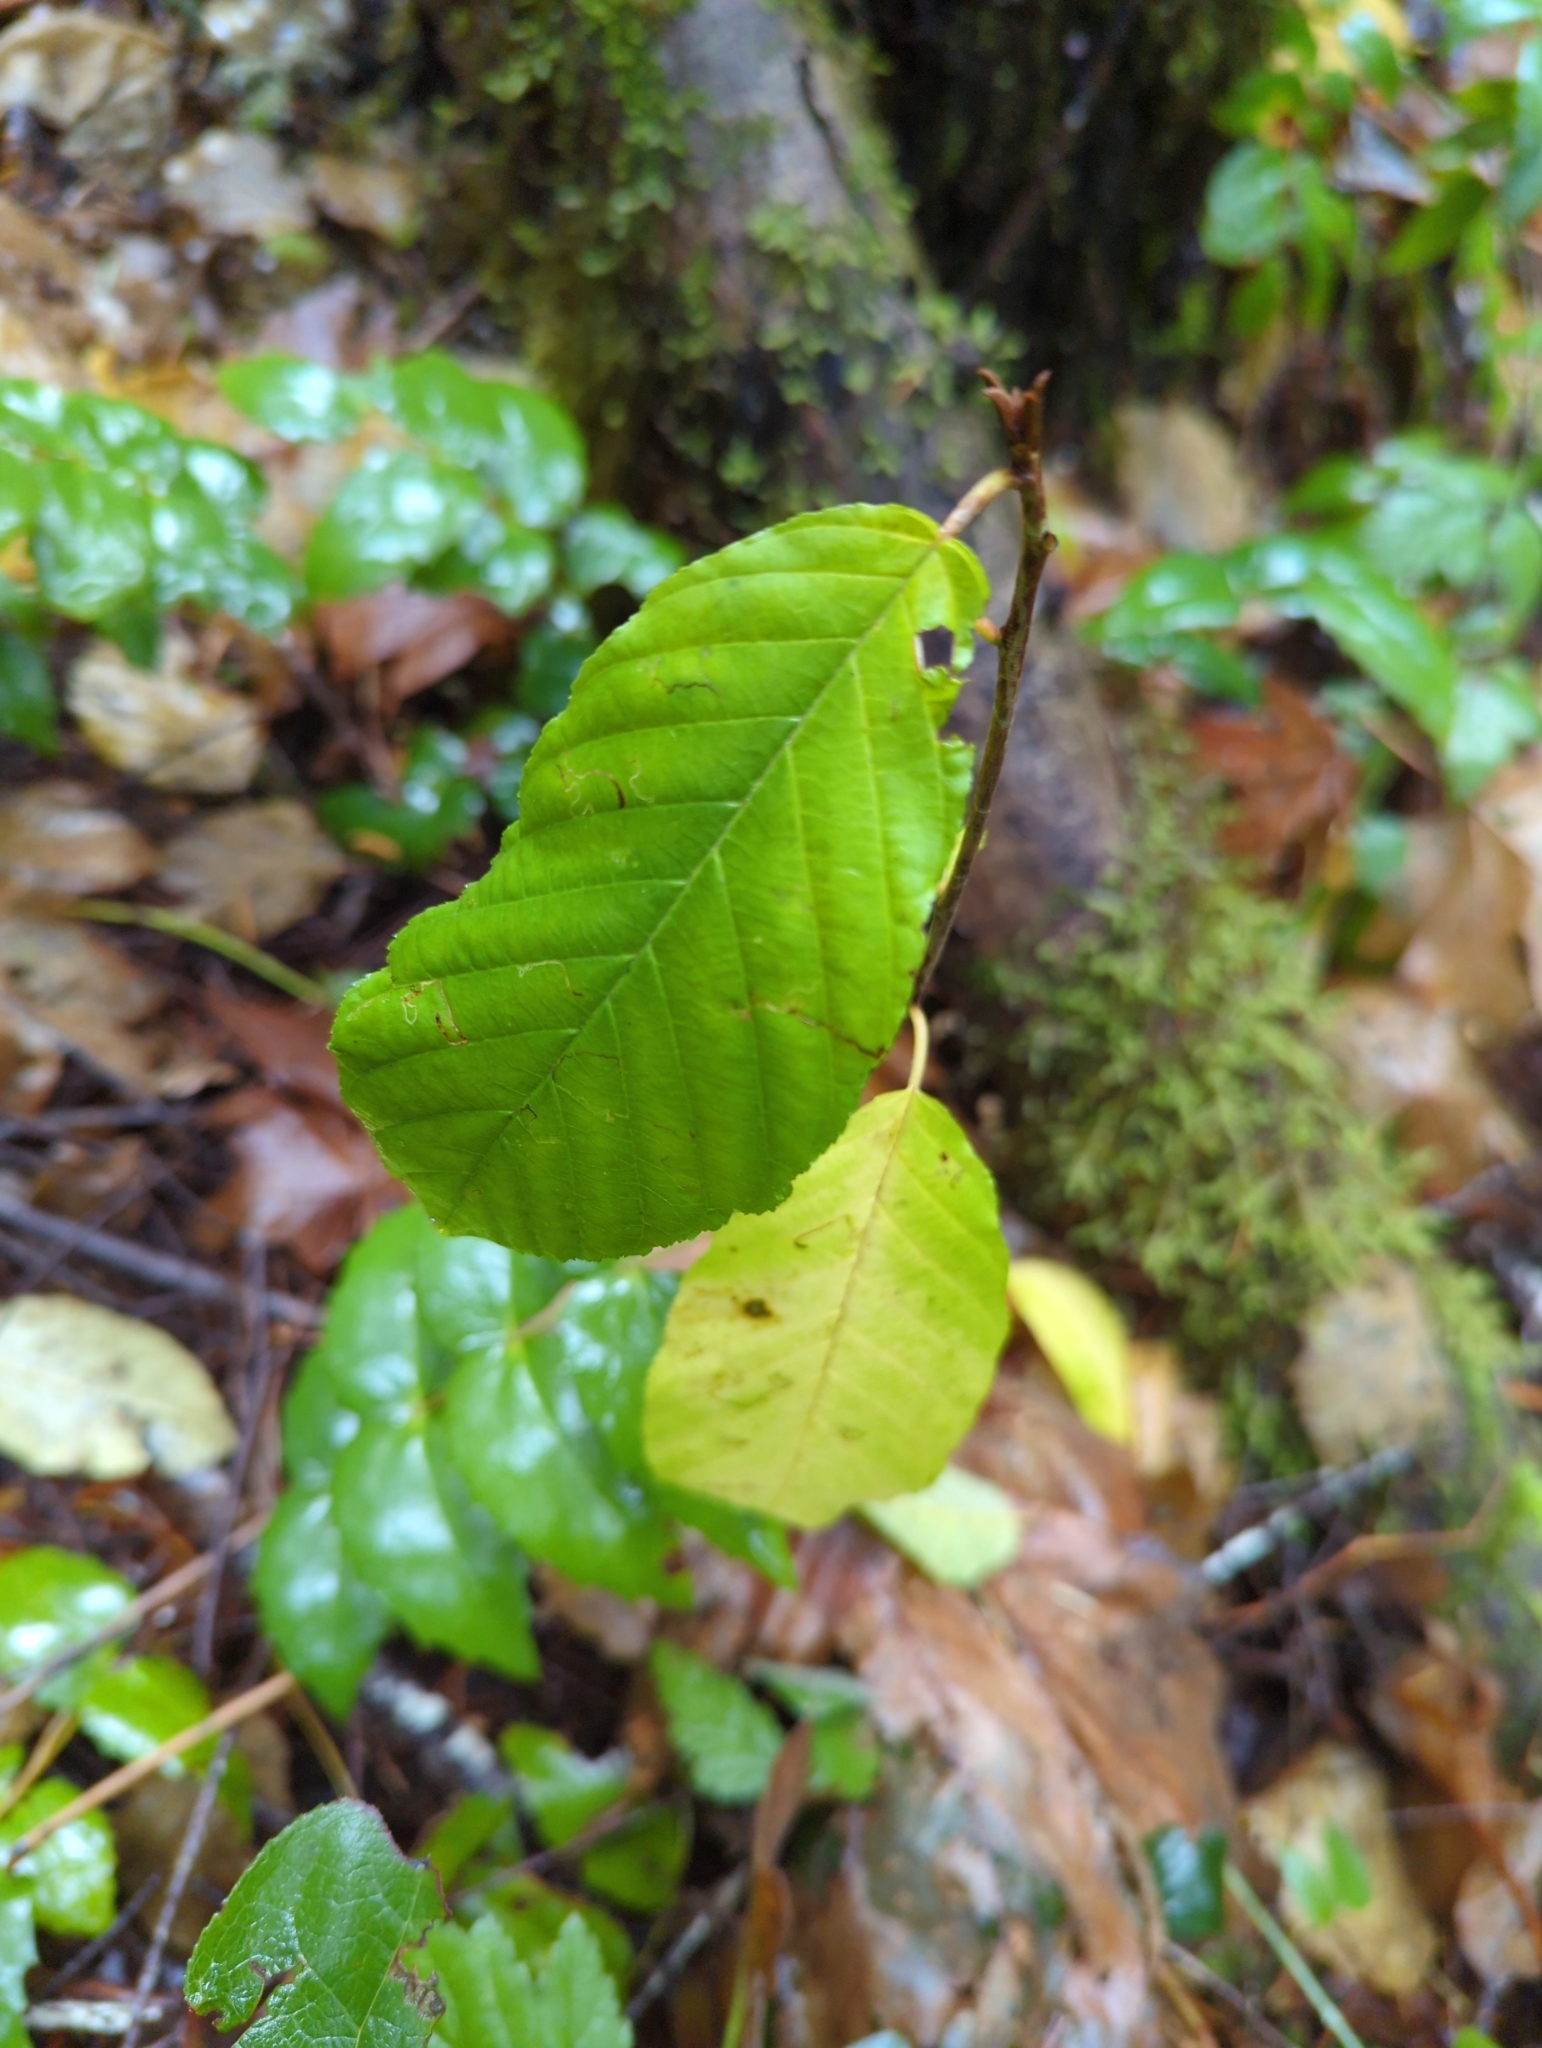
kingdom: Plantae
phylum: Tracheophyta
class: Magnoliopsida
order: Rosales
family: Rhamnaceae
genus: Frangula
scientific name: Frangula purshiana
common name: Cascara buckthorn
